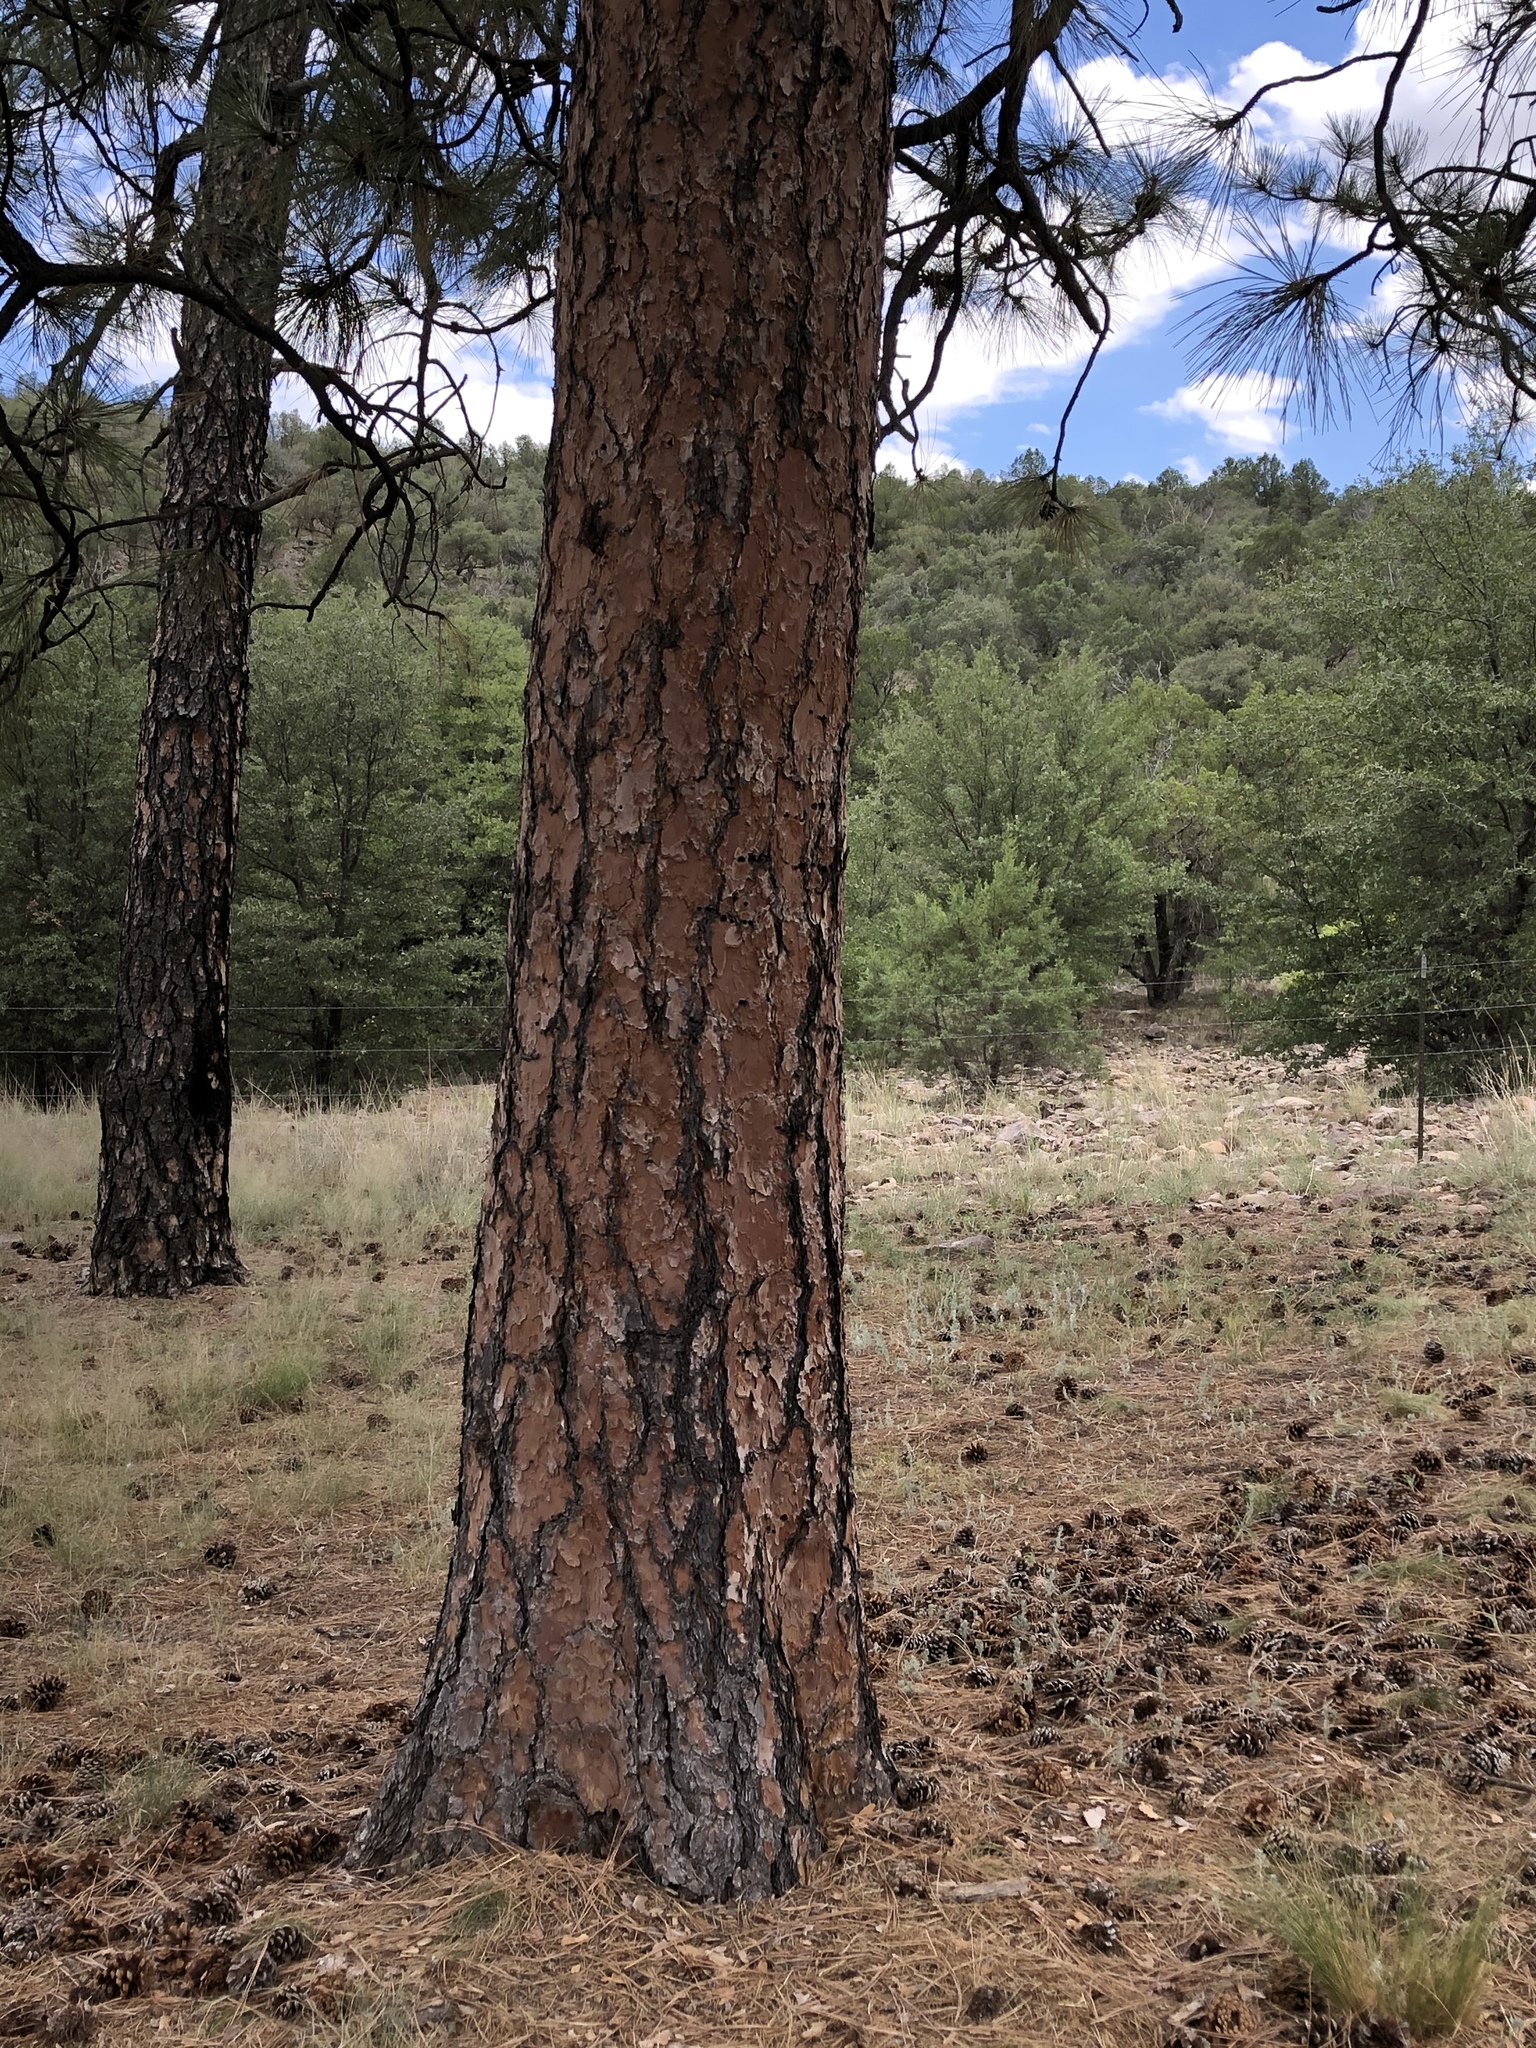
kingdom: Plantae
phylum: Tracheophyta
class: Pinopsida
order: Pinales
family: Pinaceae
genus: Pinus
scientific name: Pinus ponderosa
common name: Western yellow-pine
